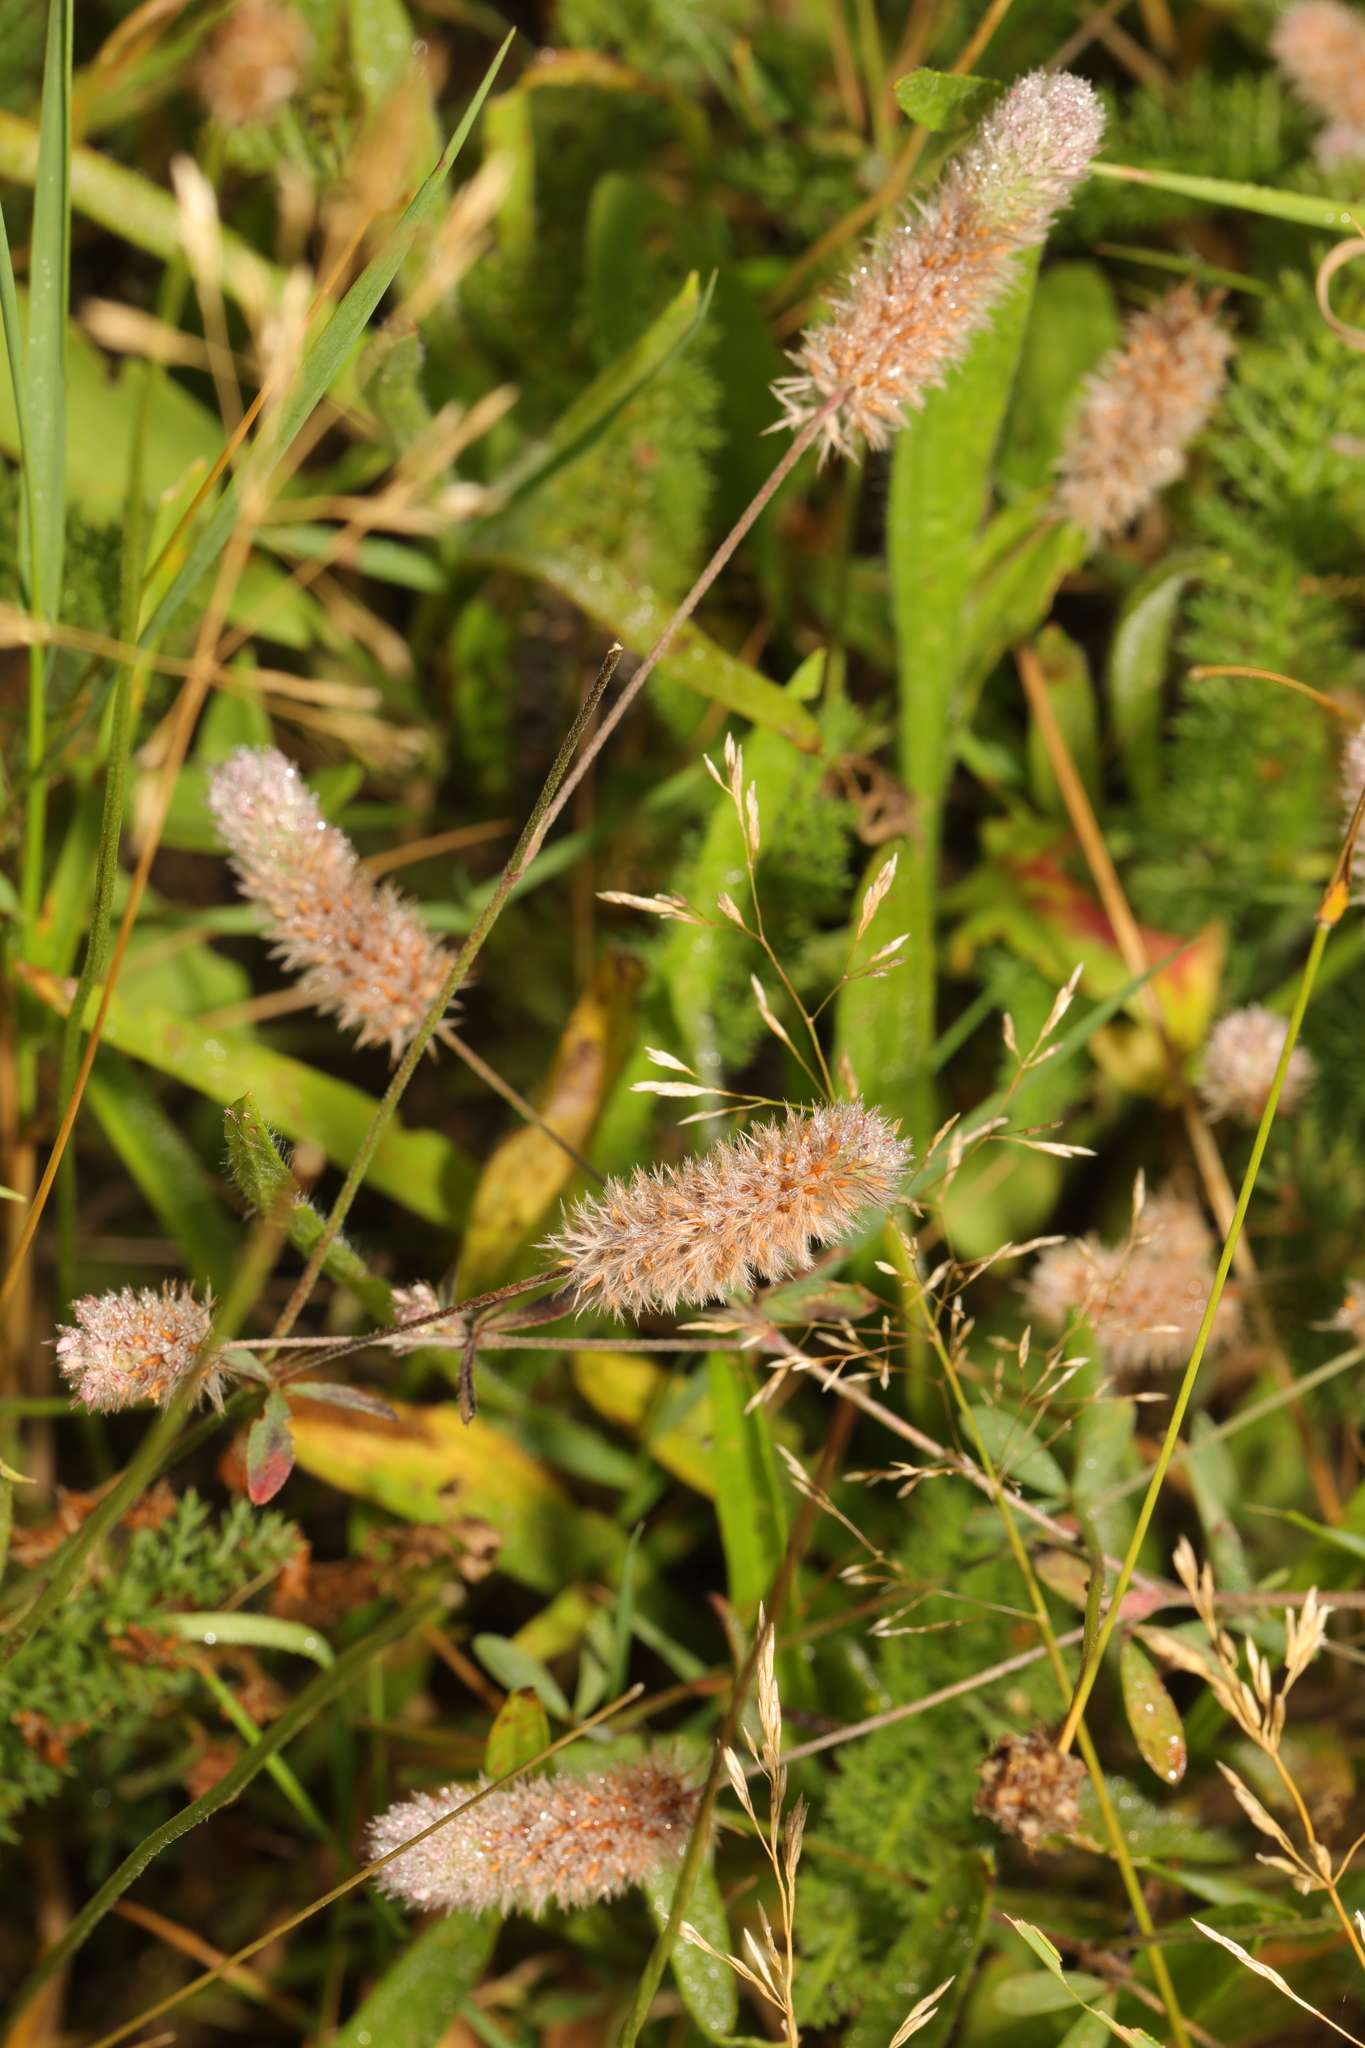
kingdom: Plantae
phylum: Tracheophyta
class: Magnoliopsida
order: Fabales
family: Fabaceae
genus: Trifolium
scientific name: Trifolium arvense
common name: Hare's-foot clover
